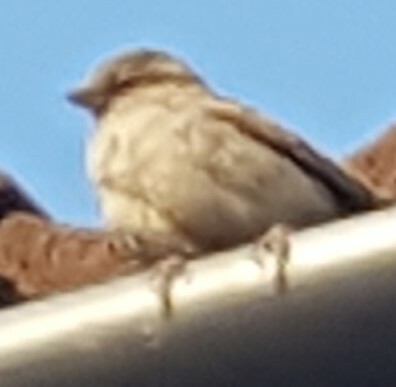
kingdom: Animalia
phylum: Chordata
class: Aves
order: Passeriformes
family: Passeridae
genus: Passer
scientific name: Passer domesticus
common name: House sparrow
